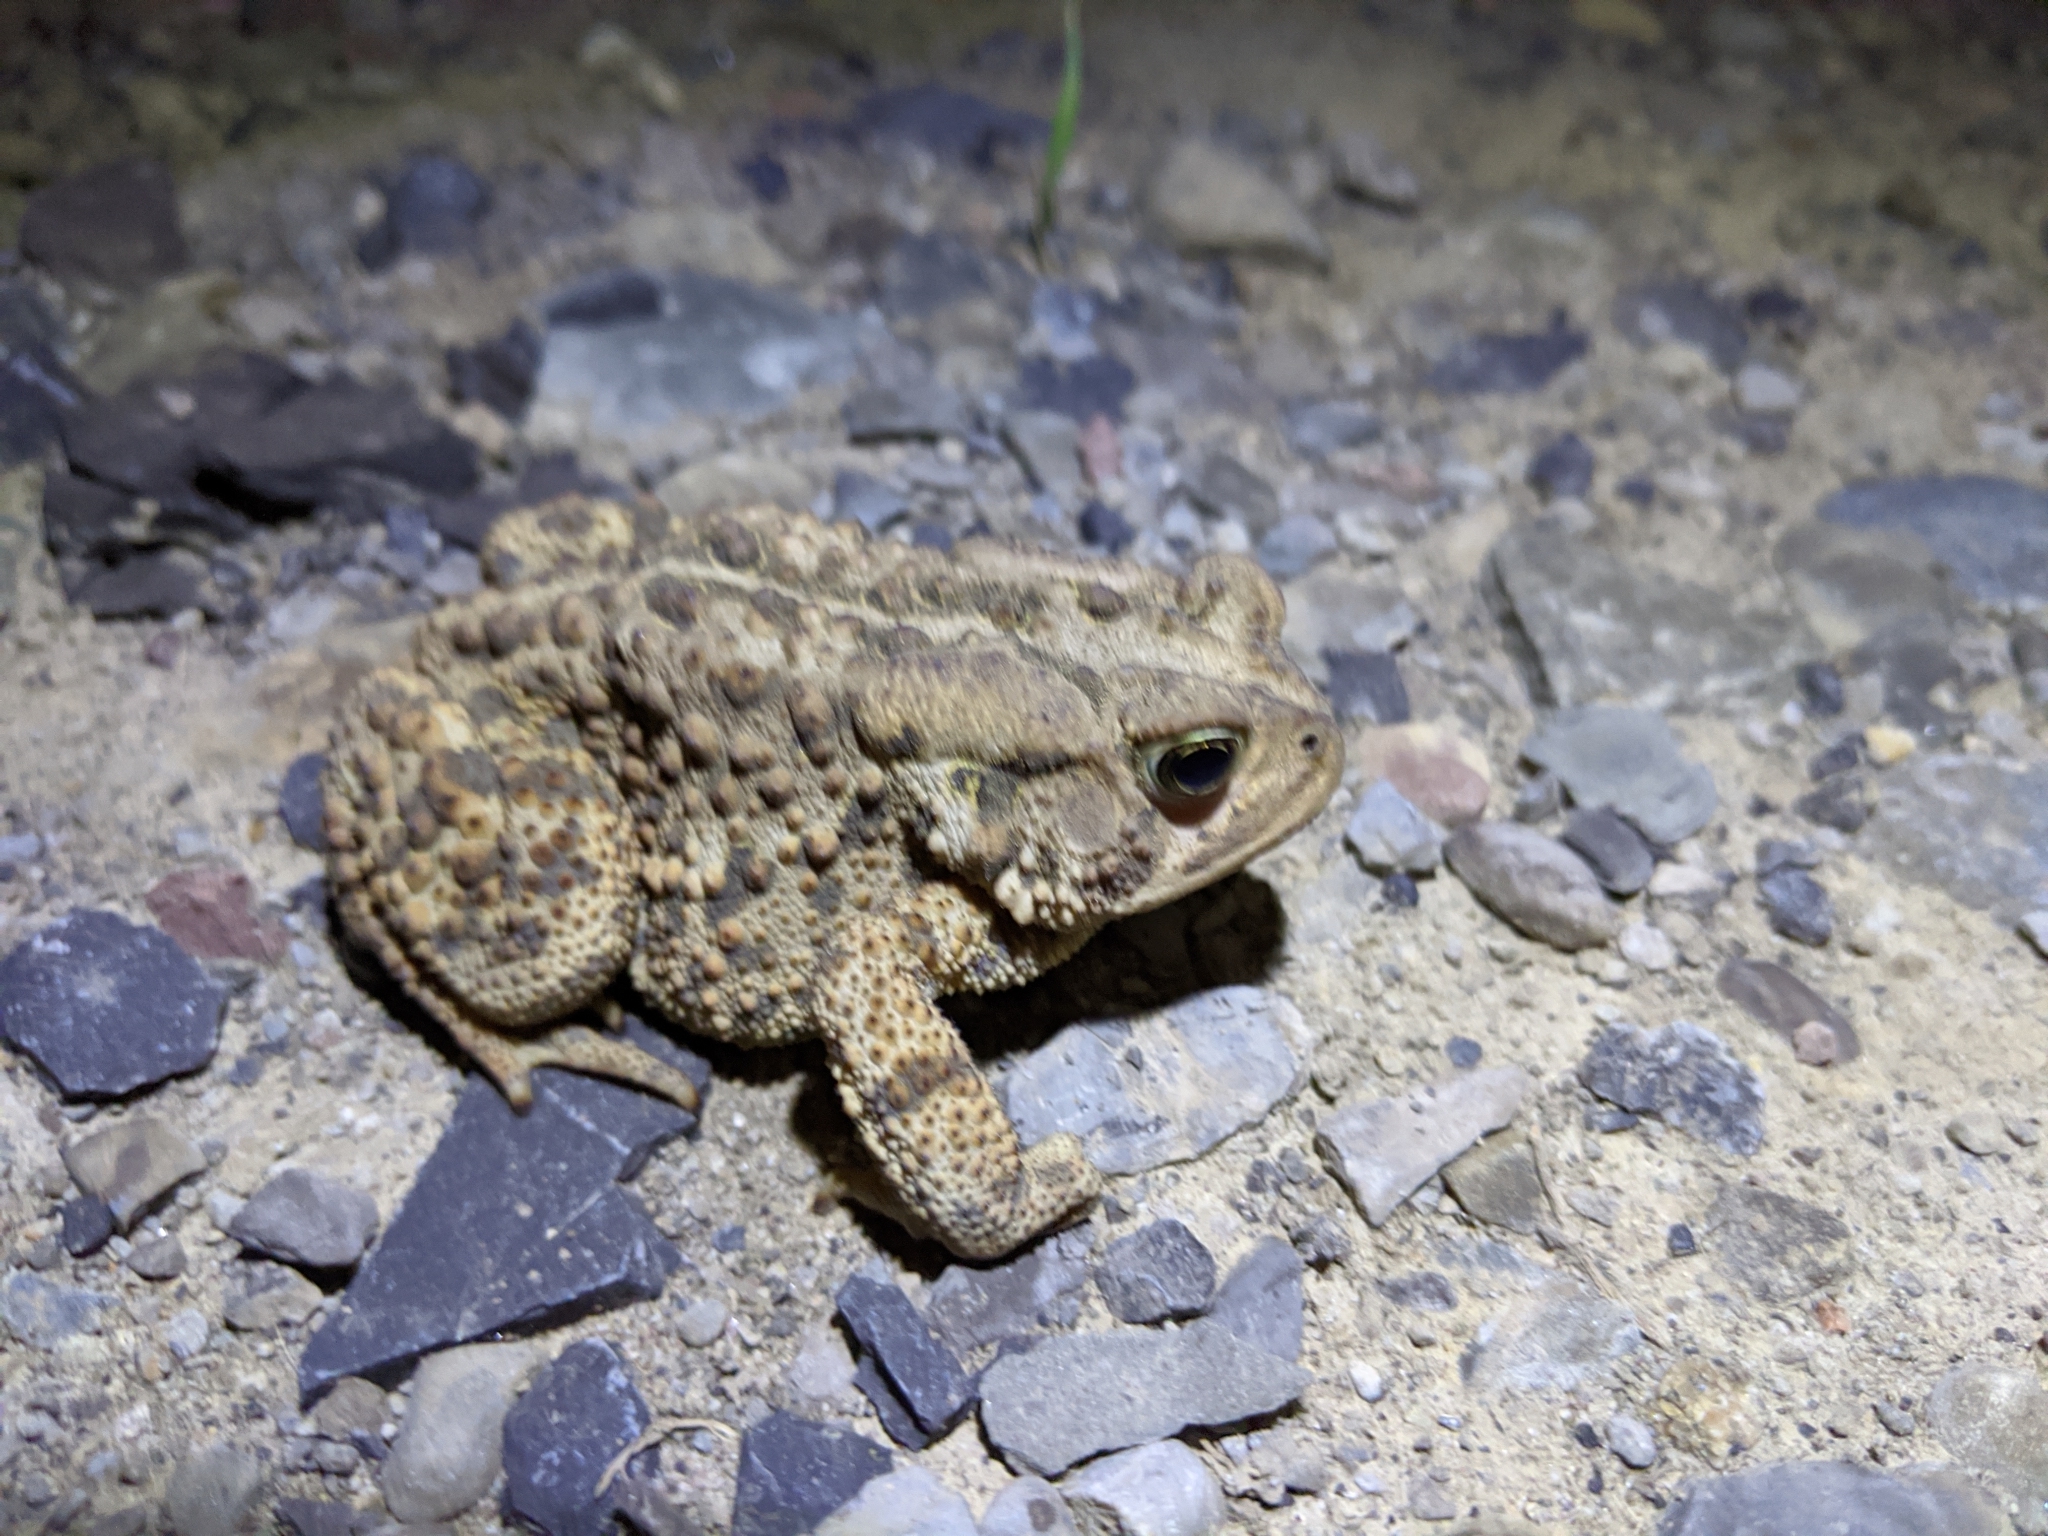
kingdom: Animalia
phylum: Chordata
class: Amphibia
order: Anura
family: Bufonidae
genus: Anaxyrus
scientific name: Anaxyrus americanus
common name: American toad
